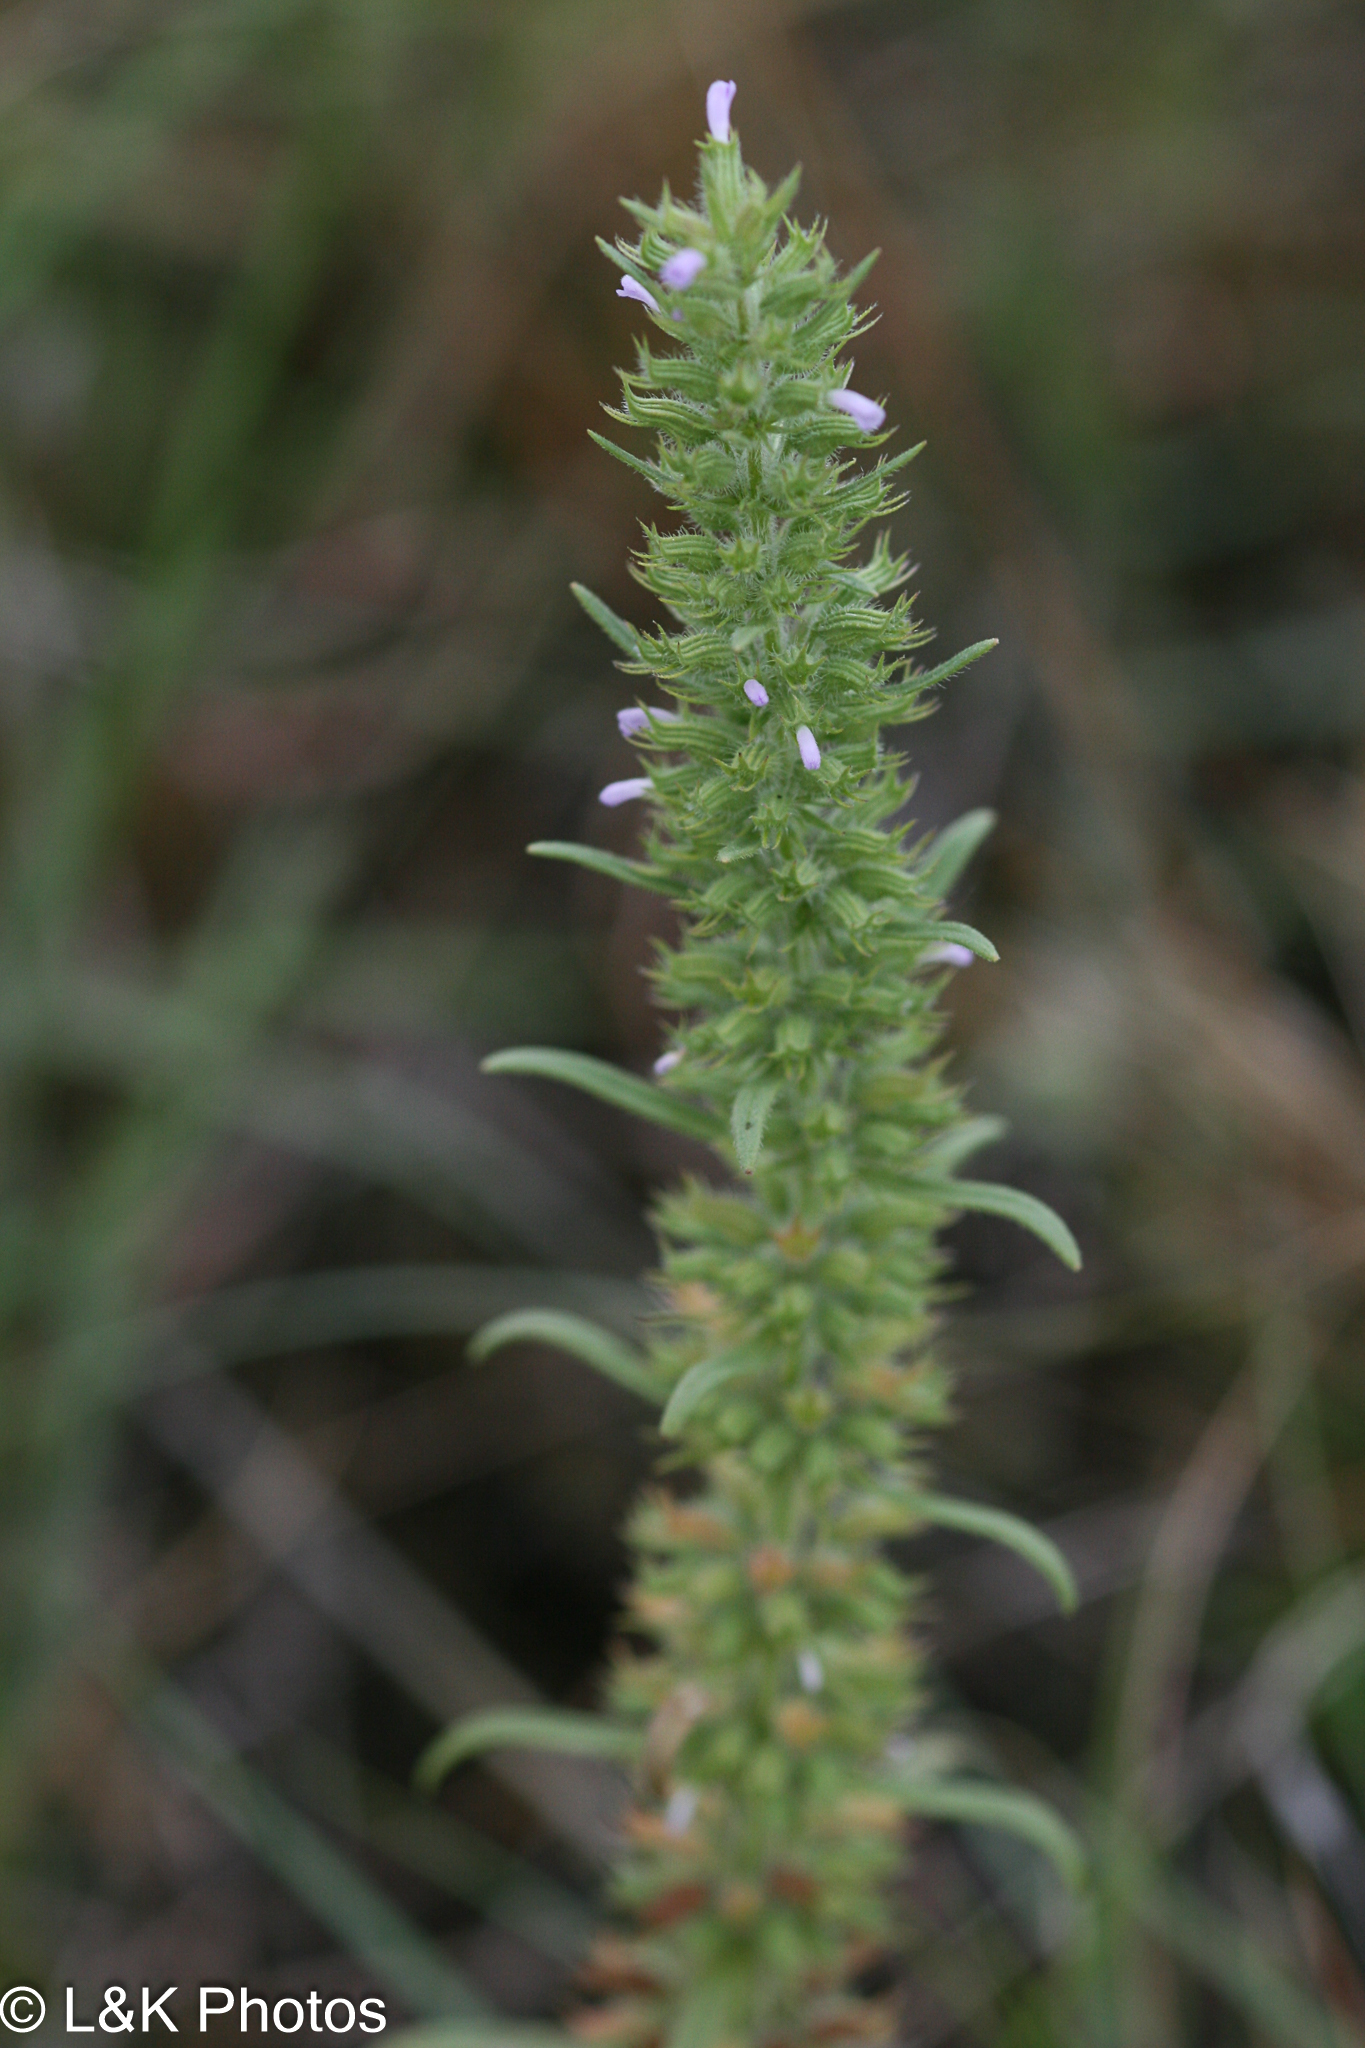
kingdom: Plantae
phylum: Tracheophyta
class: Magnoliopsida
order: Lamiales
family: Lamiaceae
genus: Hedeoma
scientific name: Hedeoma hispida
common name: Mock pennyroyal
